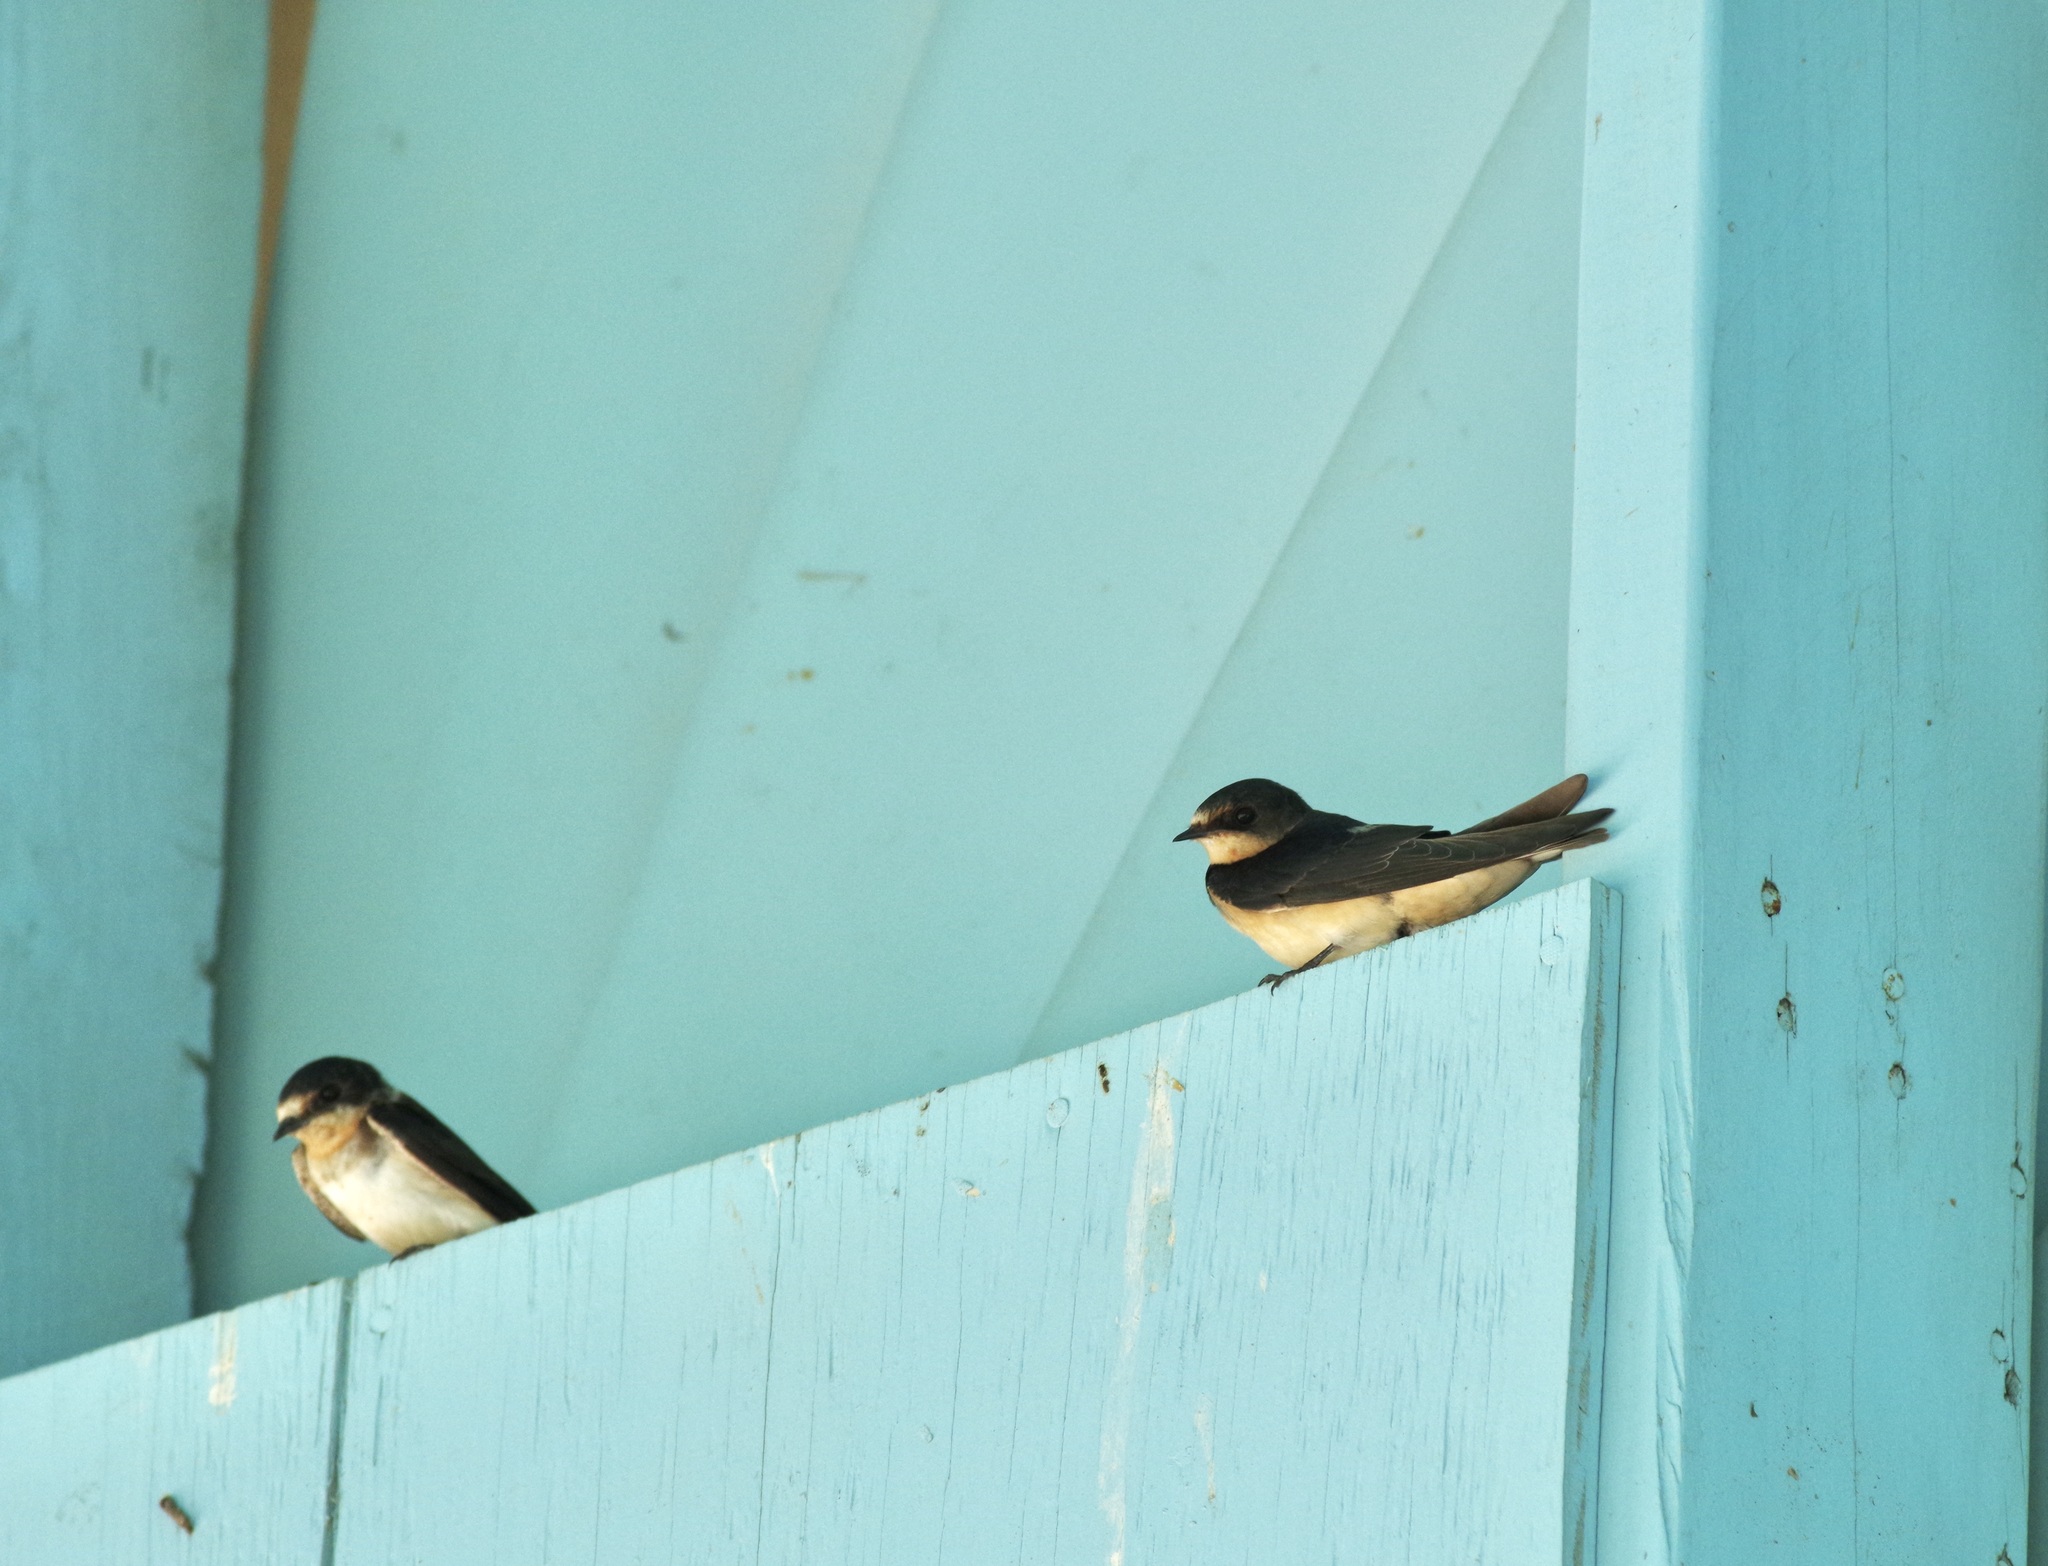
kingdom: Animalia
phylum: Chordata
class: Aves
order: Passeriformes
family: Hirundinidae
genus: Hirundo
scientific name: Hirundo rustica
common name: Barn swallow
